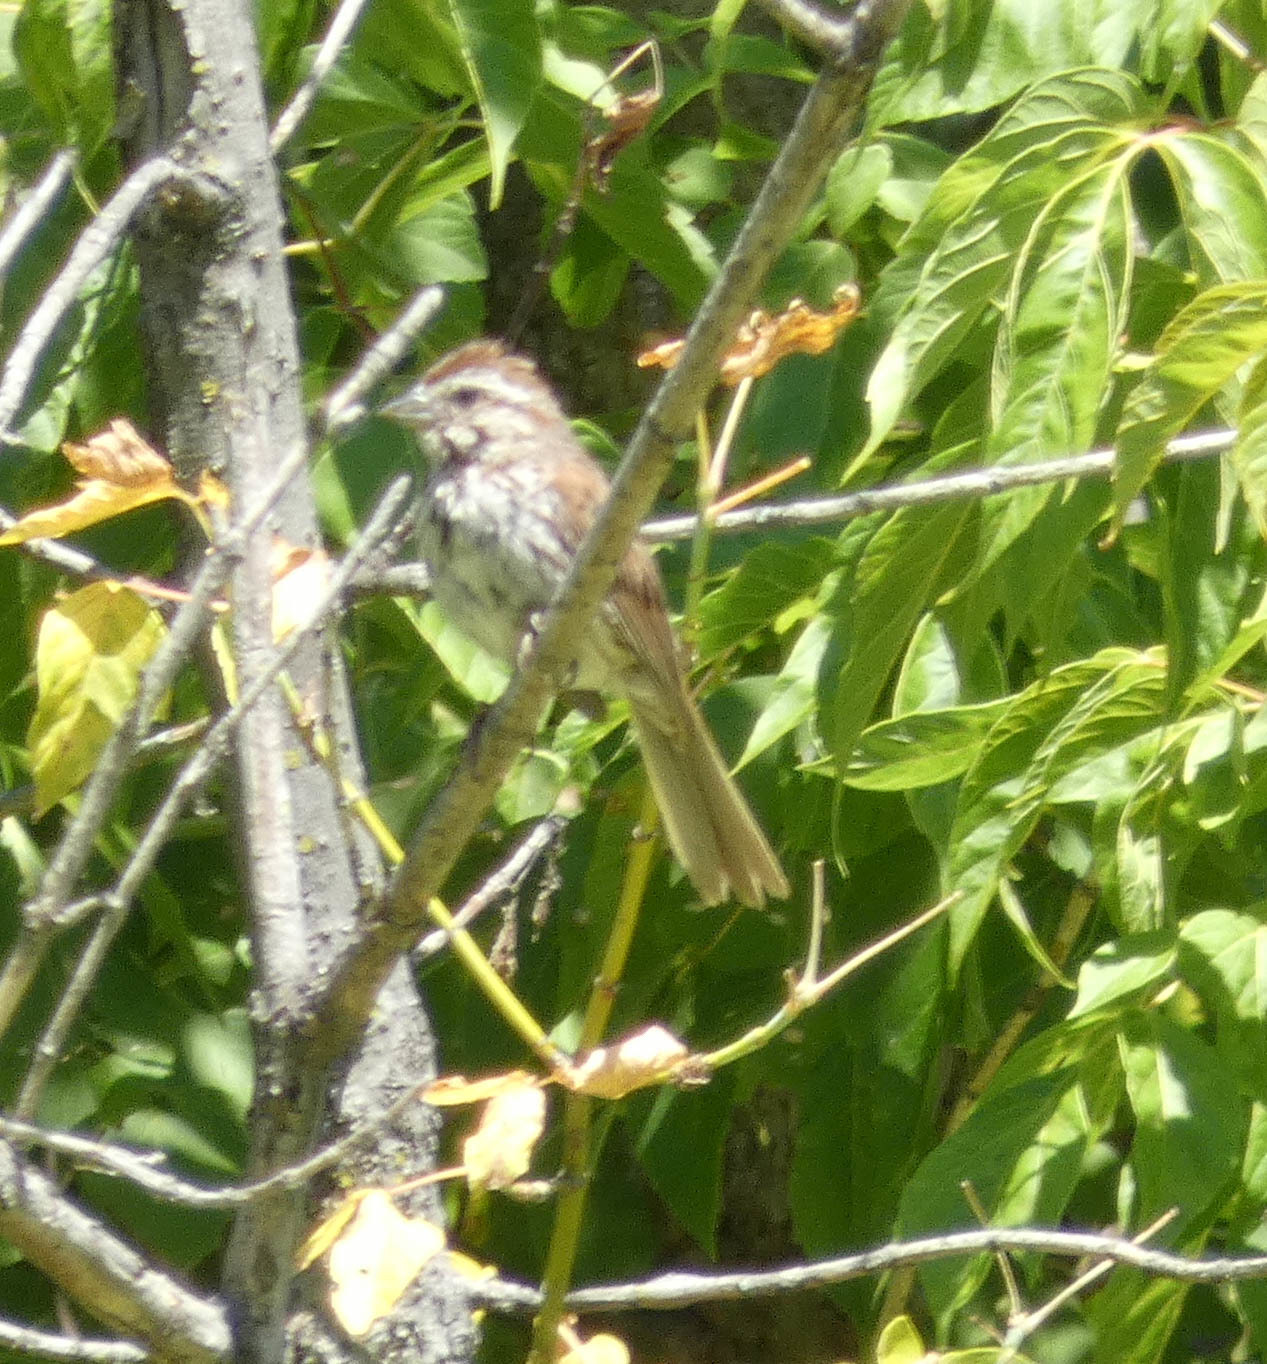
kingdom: Animalia
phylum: Chordata
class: Aves
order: Passeriformes
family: Passerellidae
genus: Melospiza
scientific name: Melospiza melodia
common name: Song sparrow
